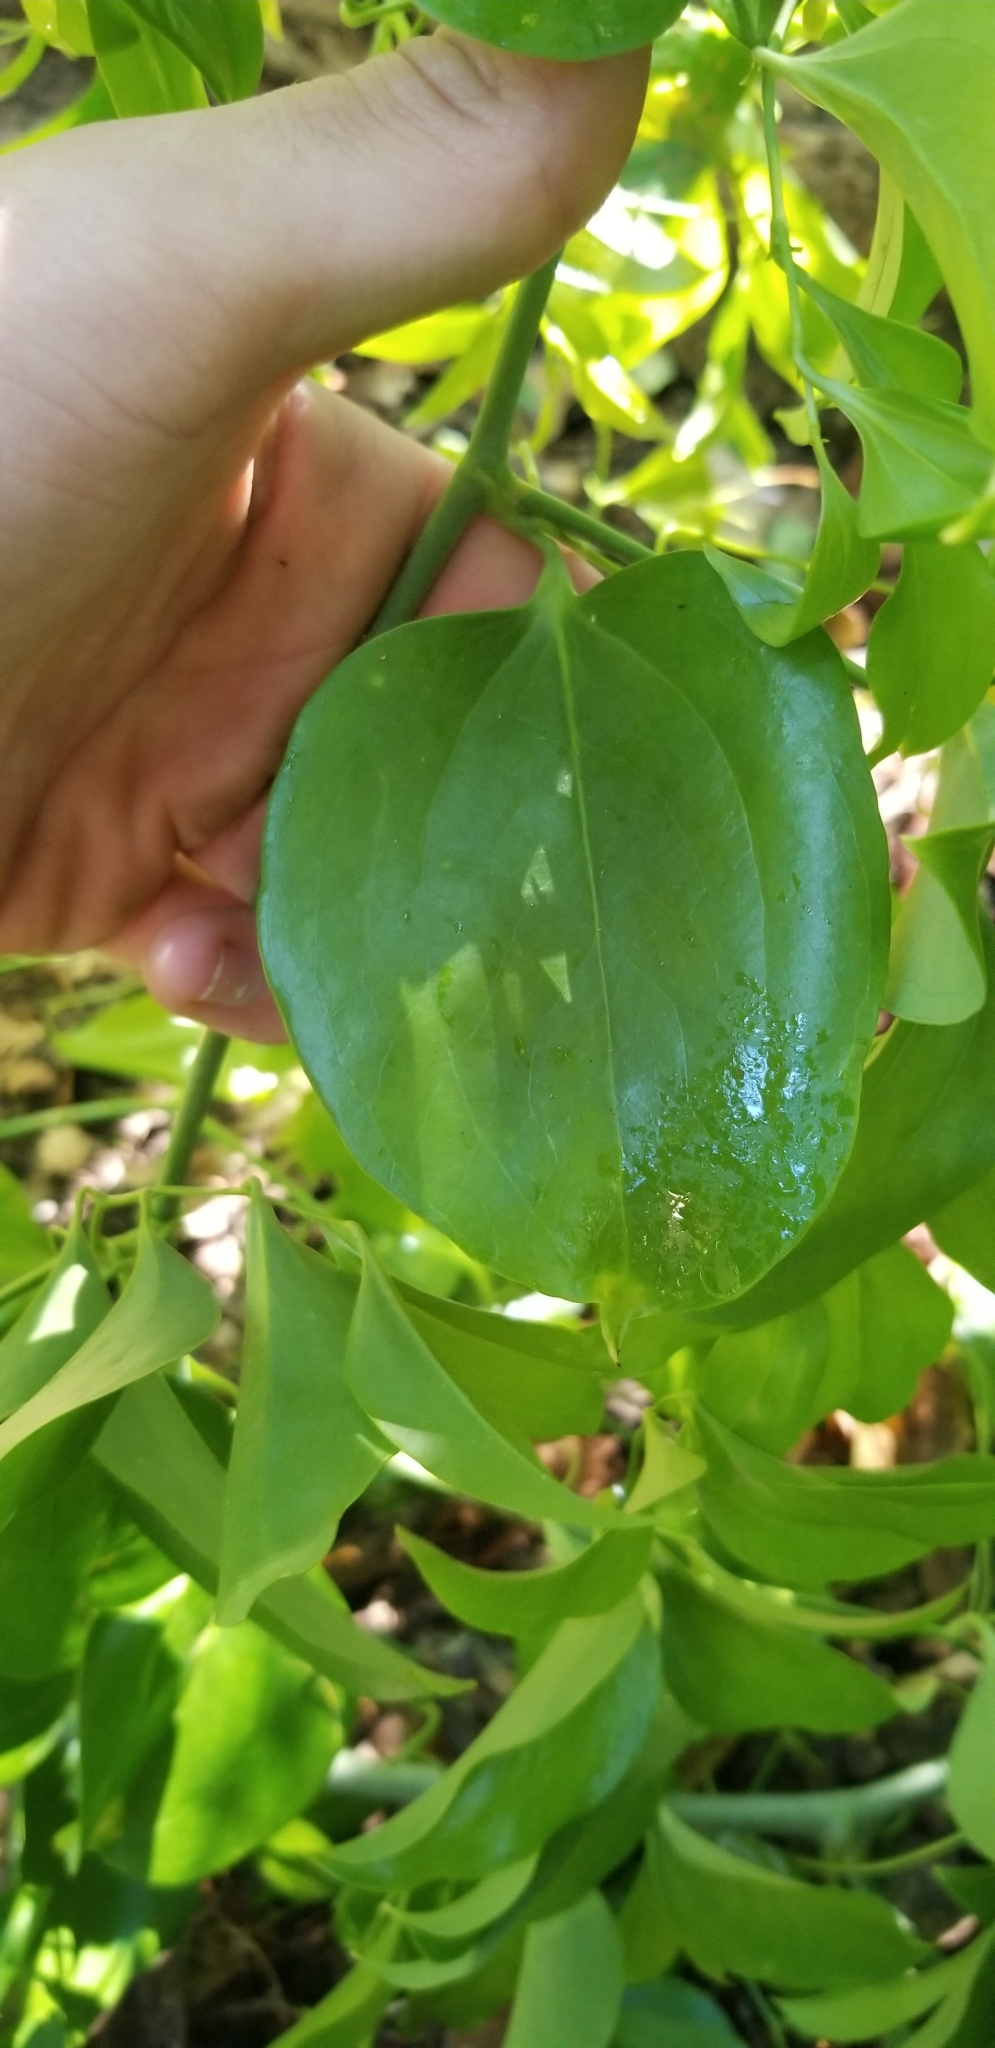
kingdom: Plantae
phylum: Tracheophyta
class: Liliopsida
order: Liliales
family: Smilacaceae
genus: Smilax
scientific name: Smilax maritima
